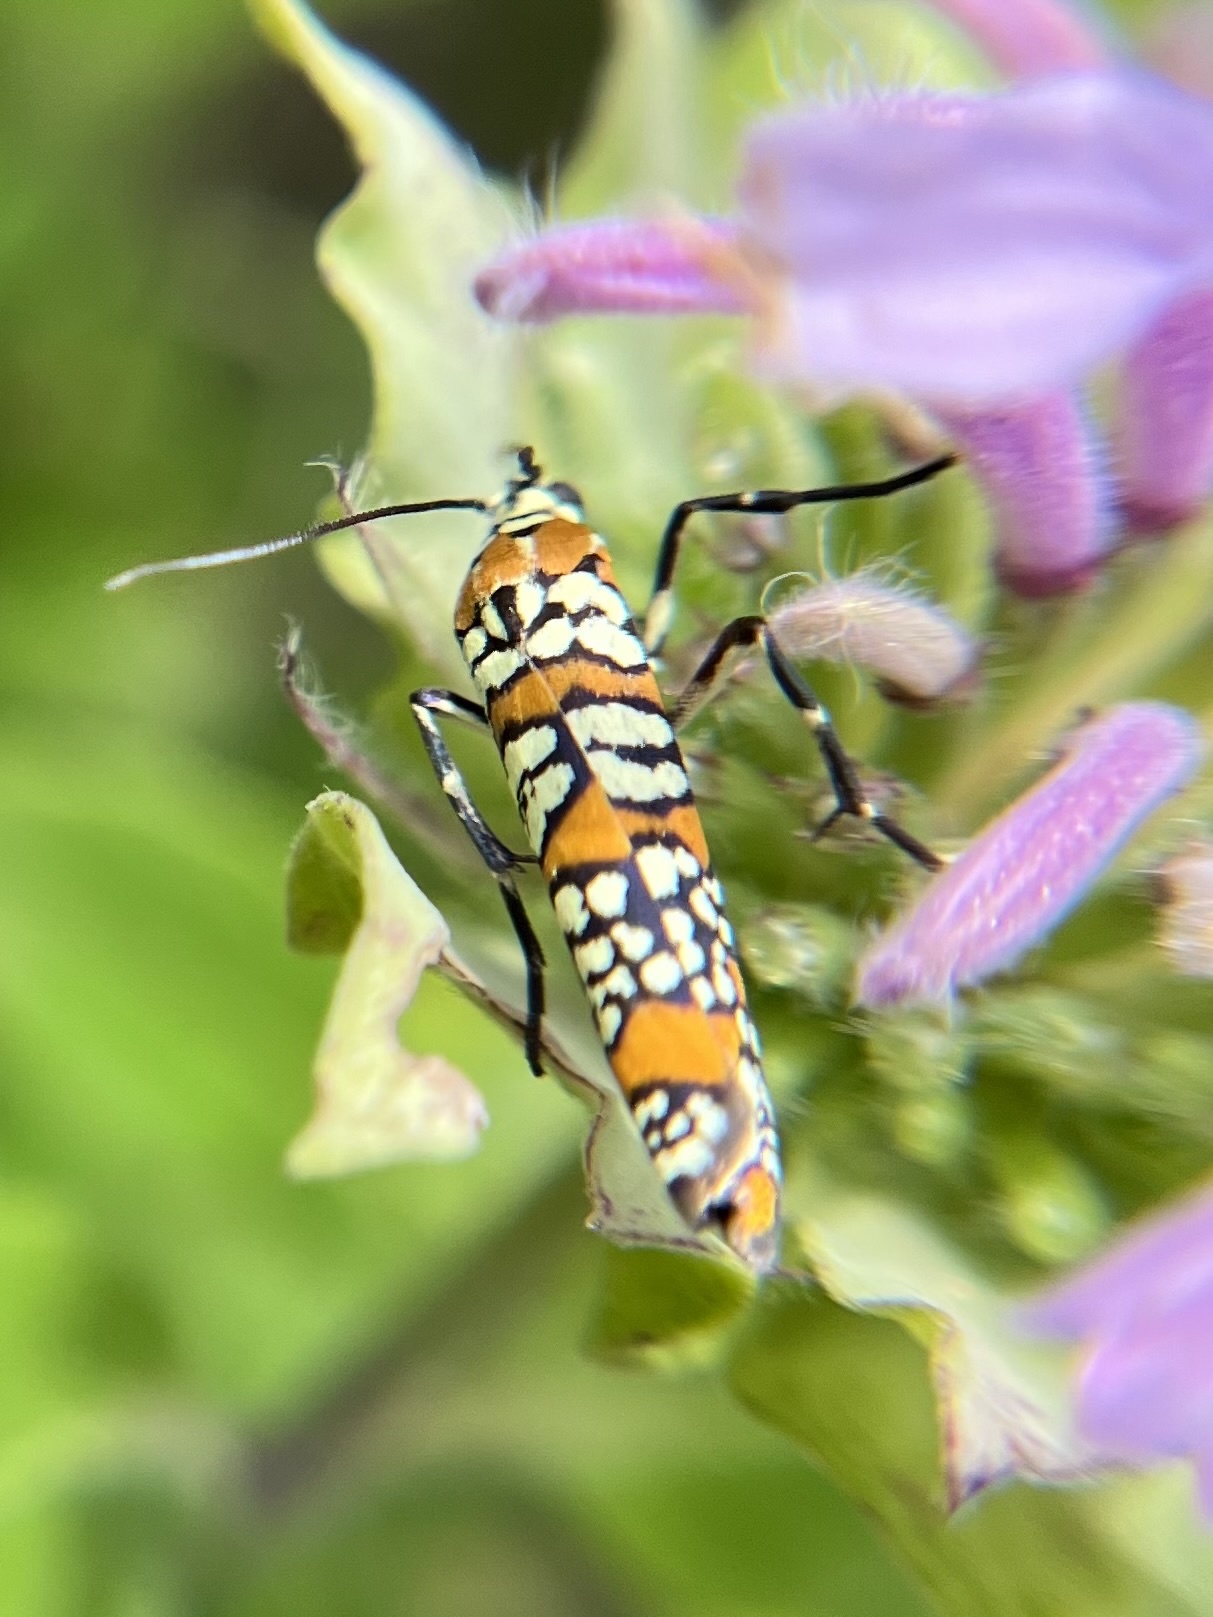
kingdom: Animalia
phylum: Arthropoda
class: Insecta
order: Lepidoptera
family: Attevidae
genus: Atteva
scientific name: Atteva punctella
